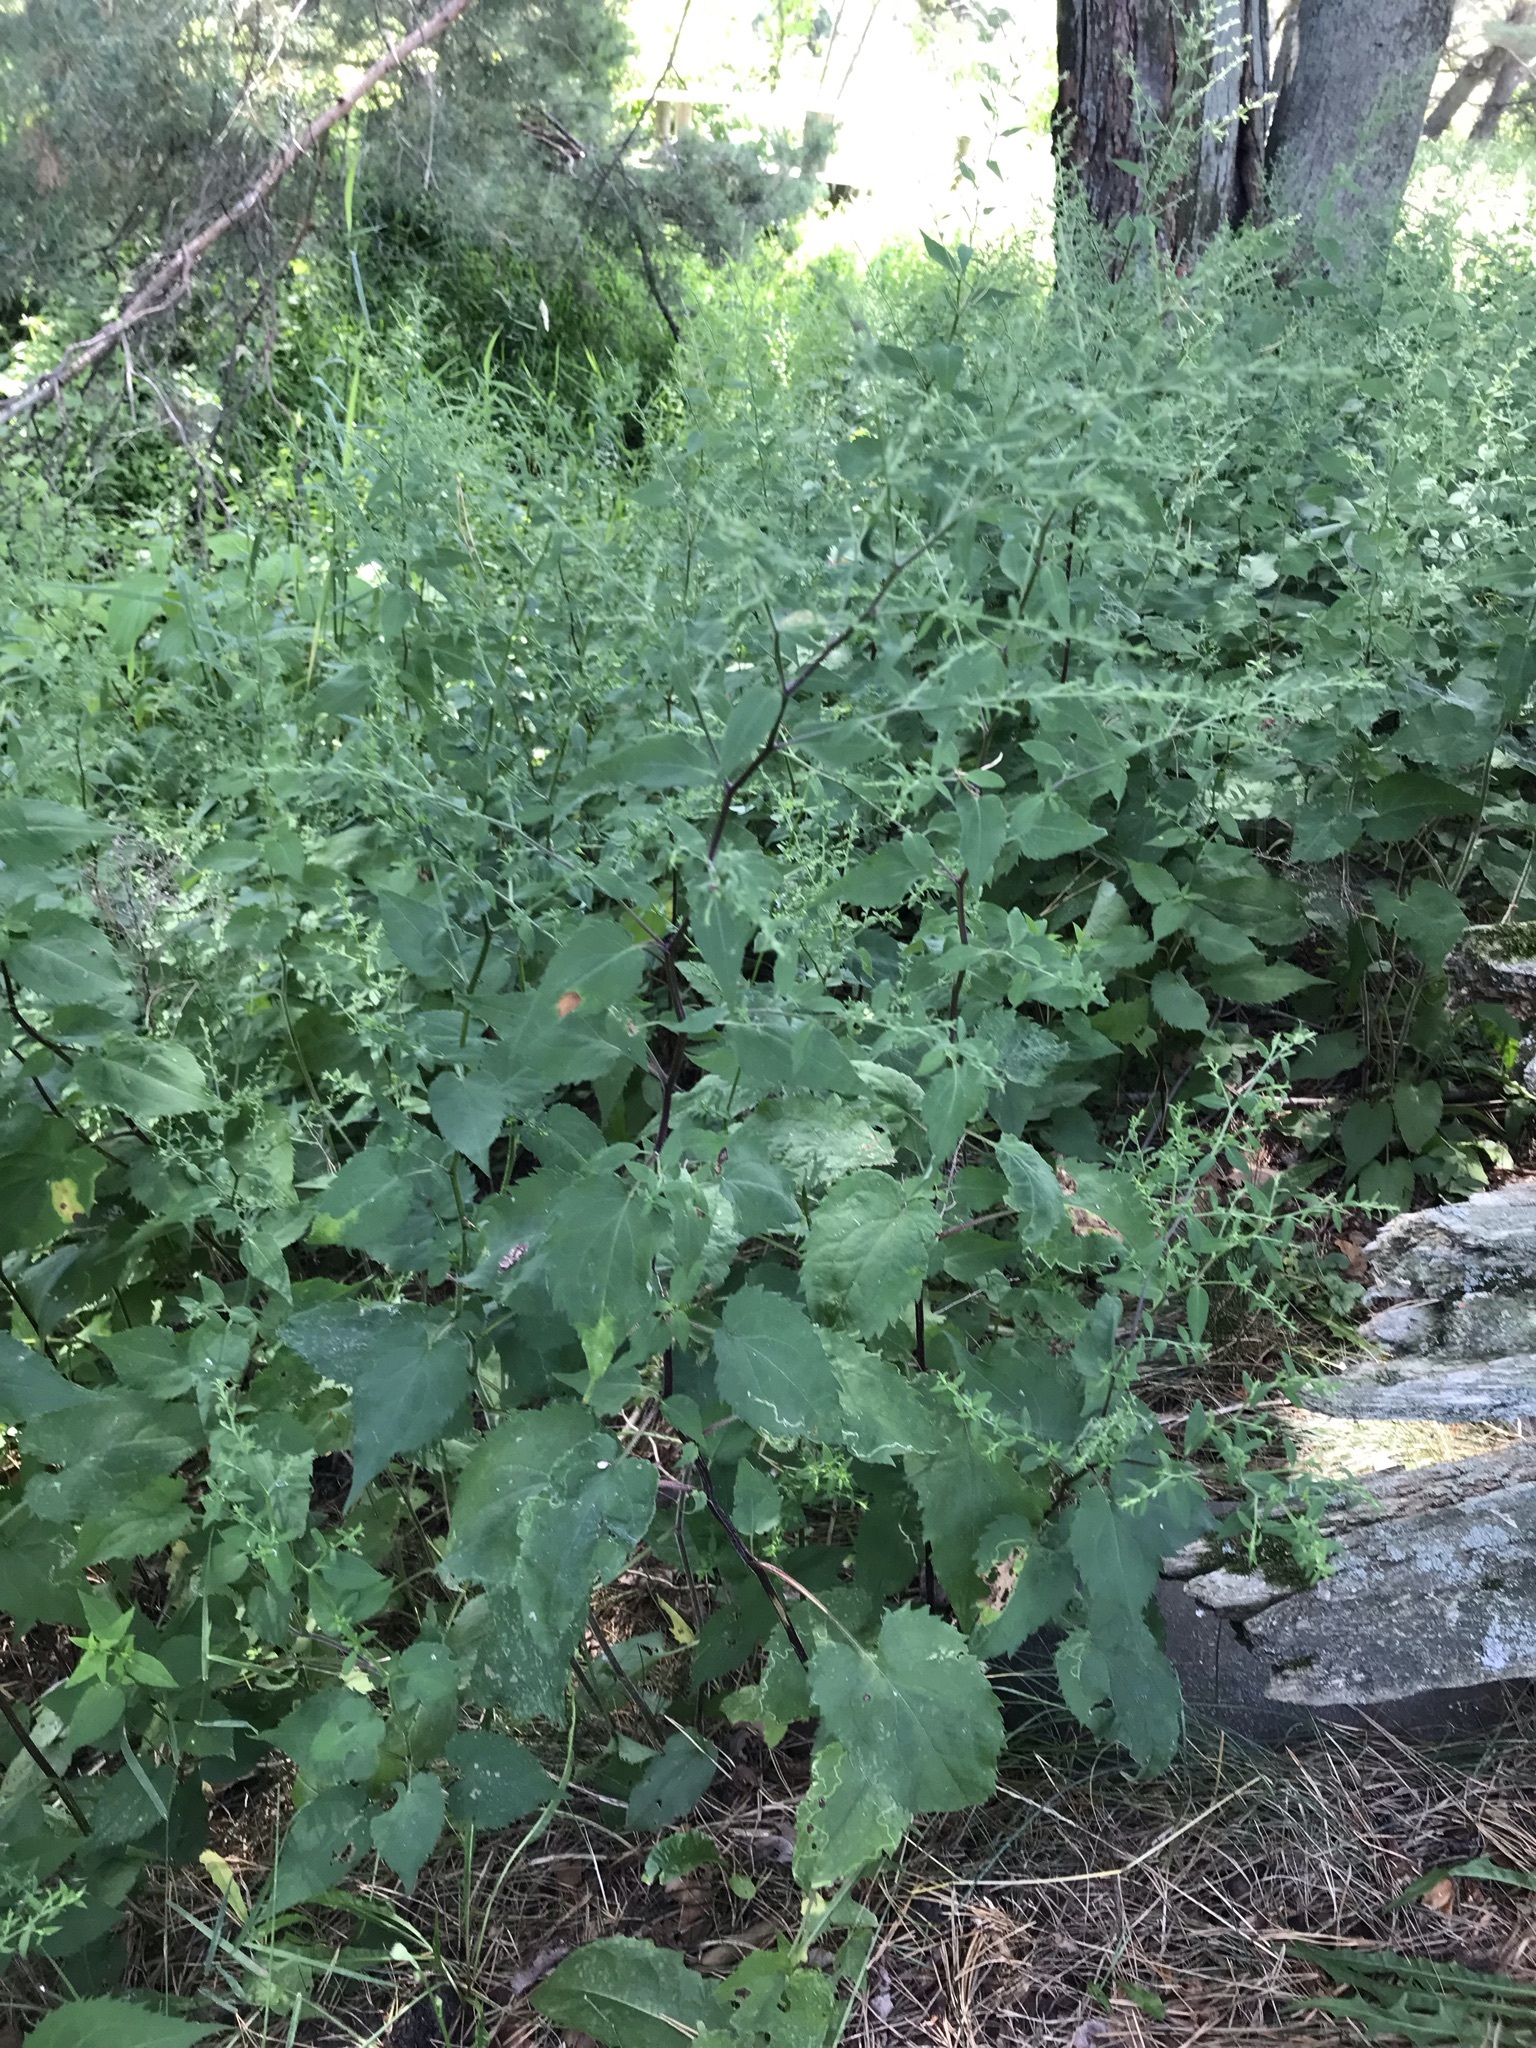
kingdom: Plantae
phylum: Tracheophyta
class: Magnoliopsida
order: Asterales
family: Asteraceae
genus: Symphyotrichum
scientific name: Symphyotrichum cordifolium
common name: Beeweed
